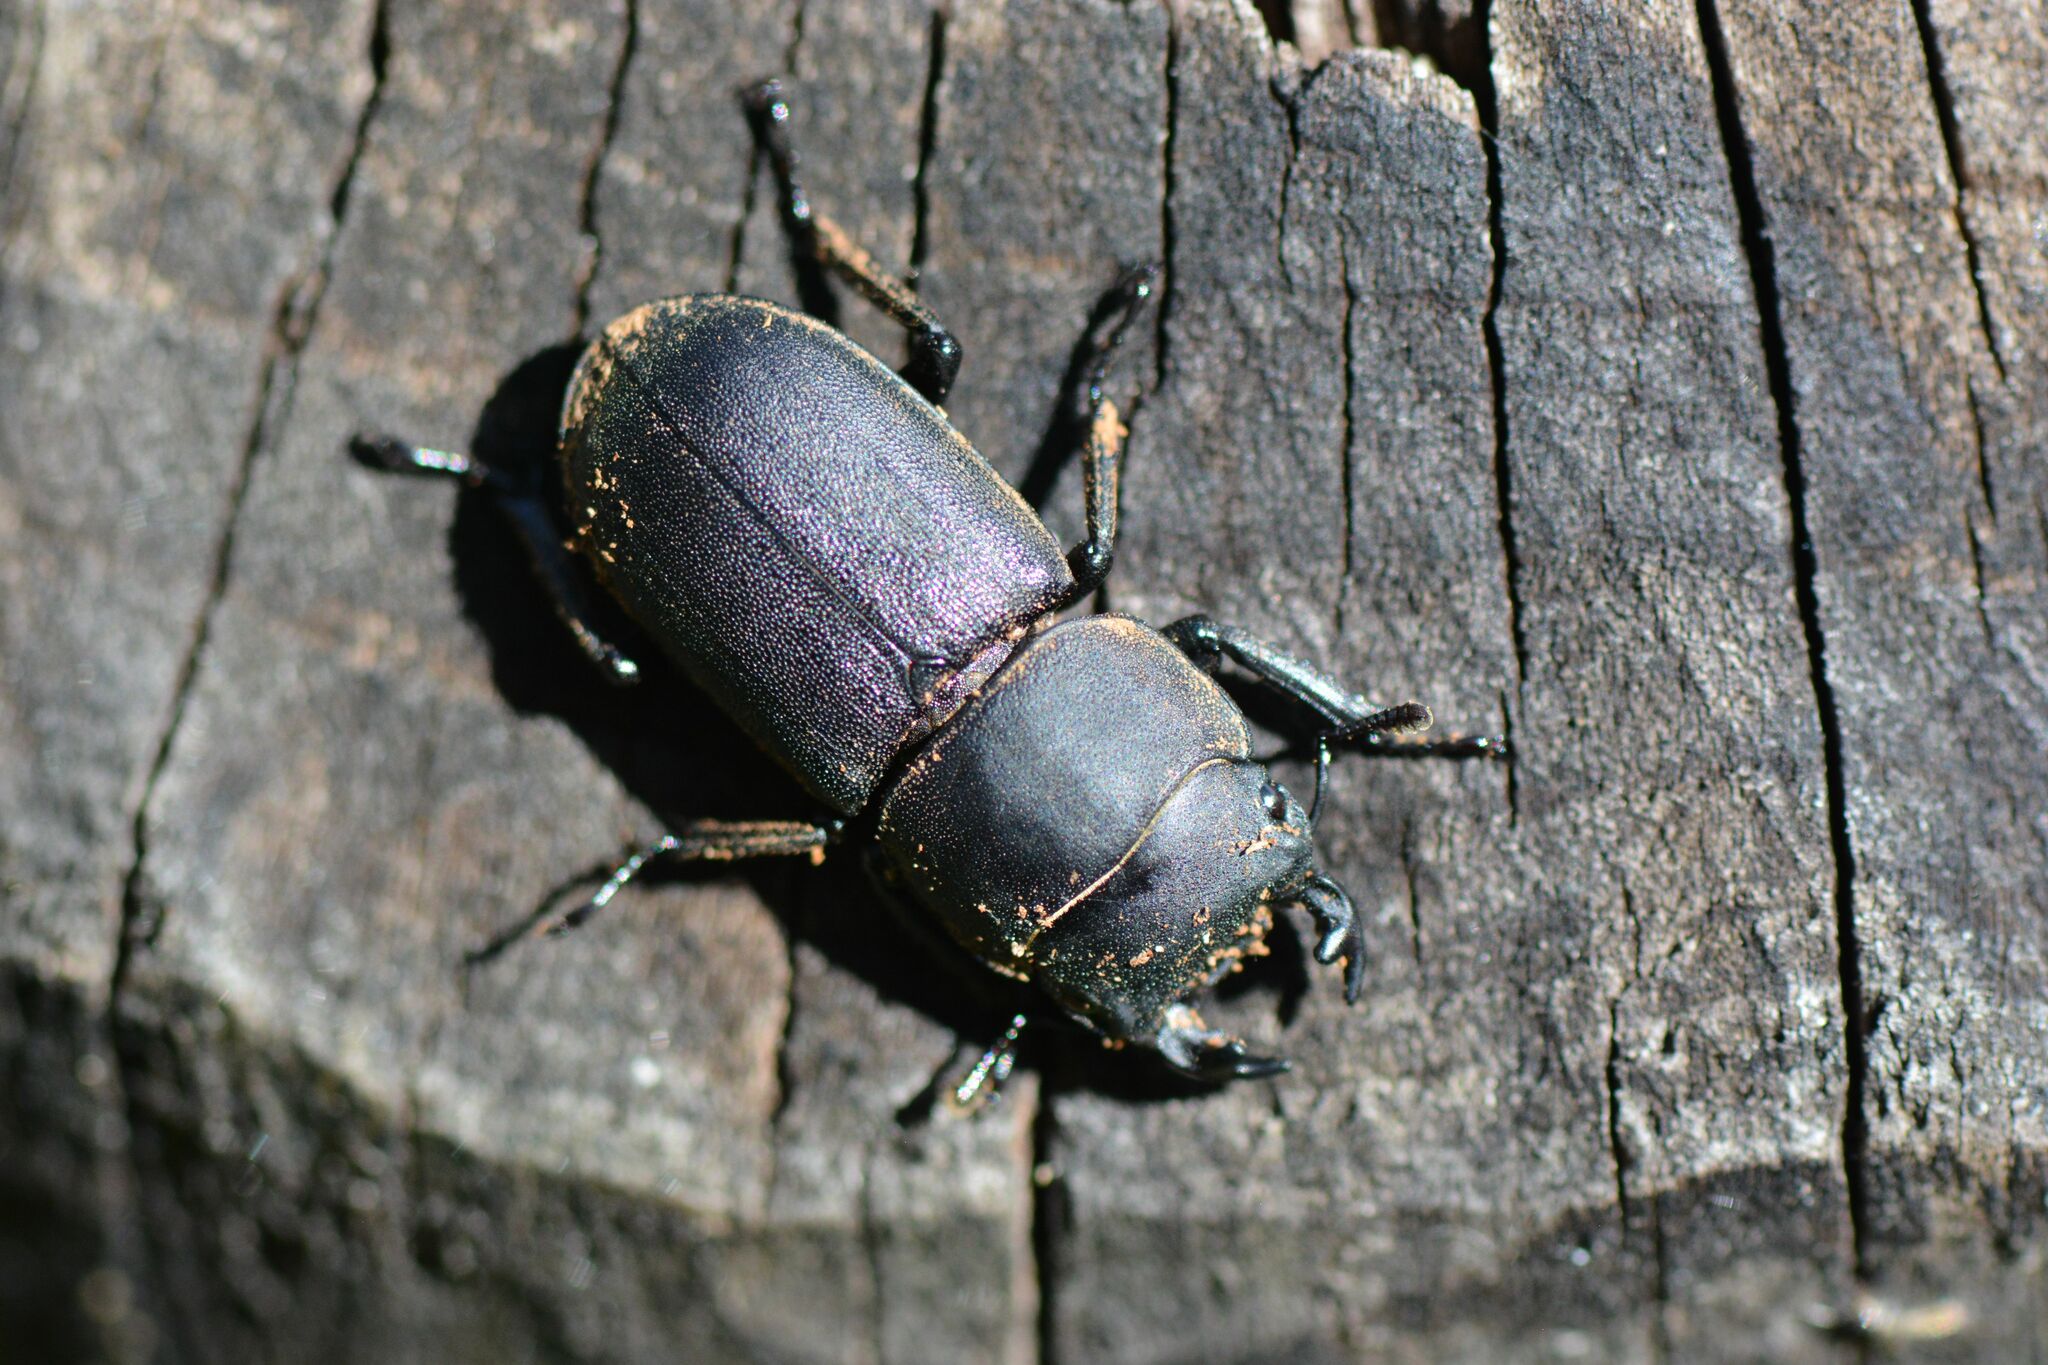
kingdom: Animalia
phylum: Arthropoda
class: Insecta
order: Coleoptera
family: Lucanidae
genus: Dorcus
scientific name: Dorcus parallelipipedus
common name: Lesser stag beetle
